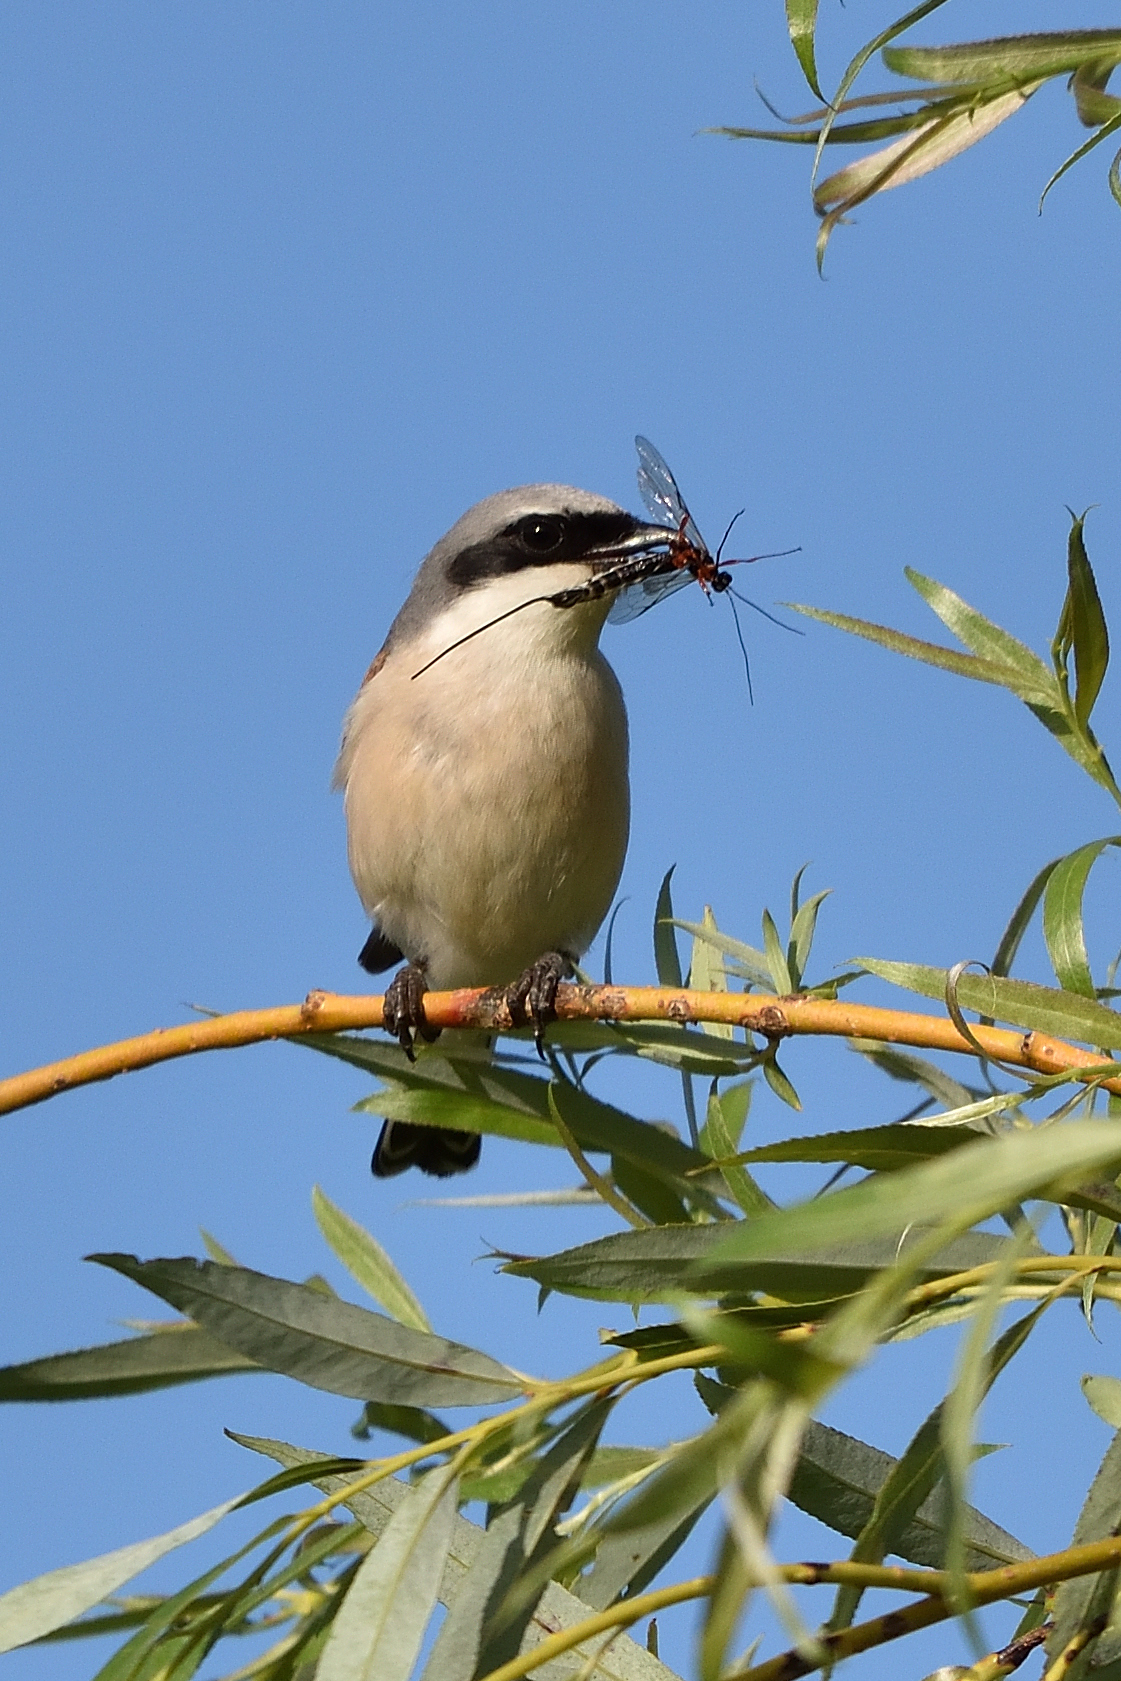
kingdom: Animalia
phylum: Chordata
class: Aves
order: Passeriformes
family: Laniidae
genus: Lanius
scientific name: Lanius collurio
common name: Red-backed shrike
